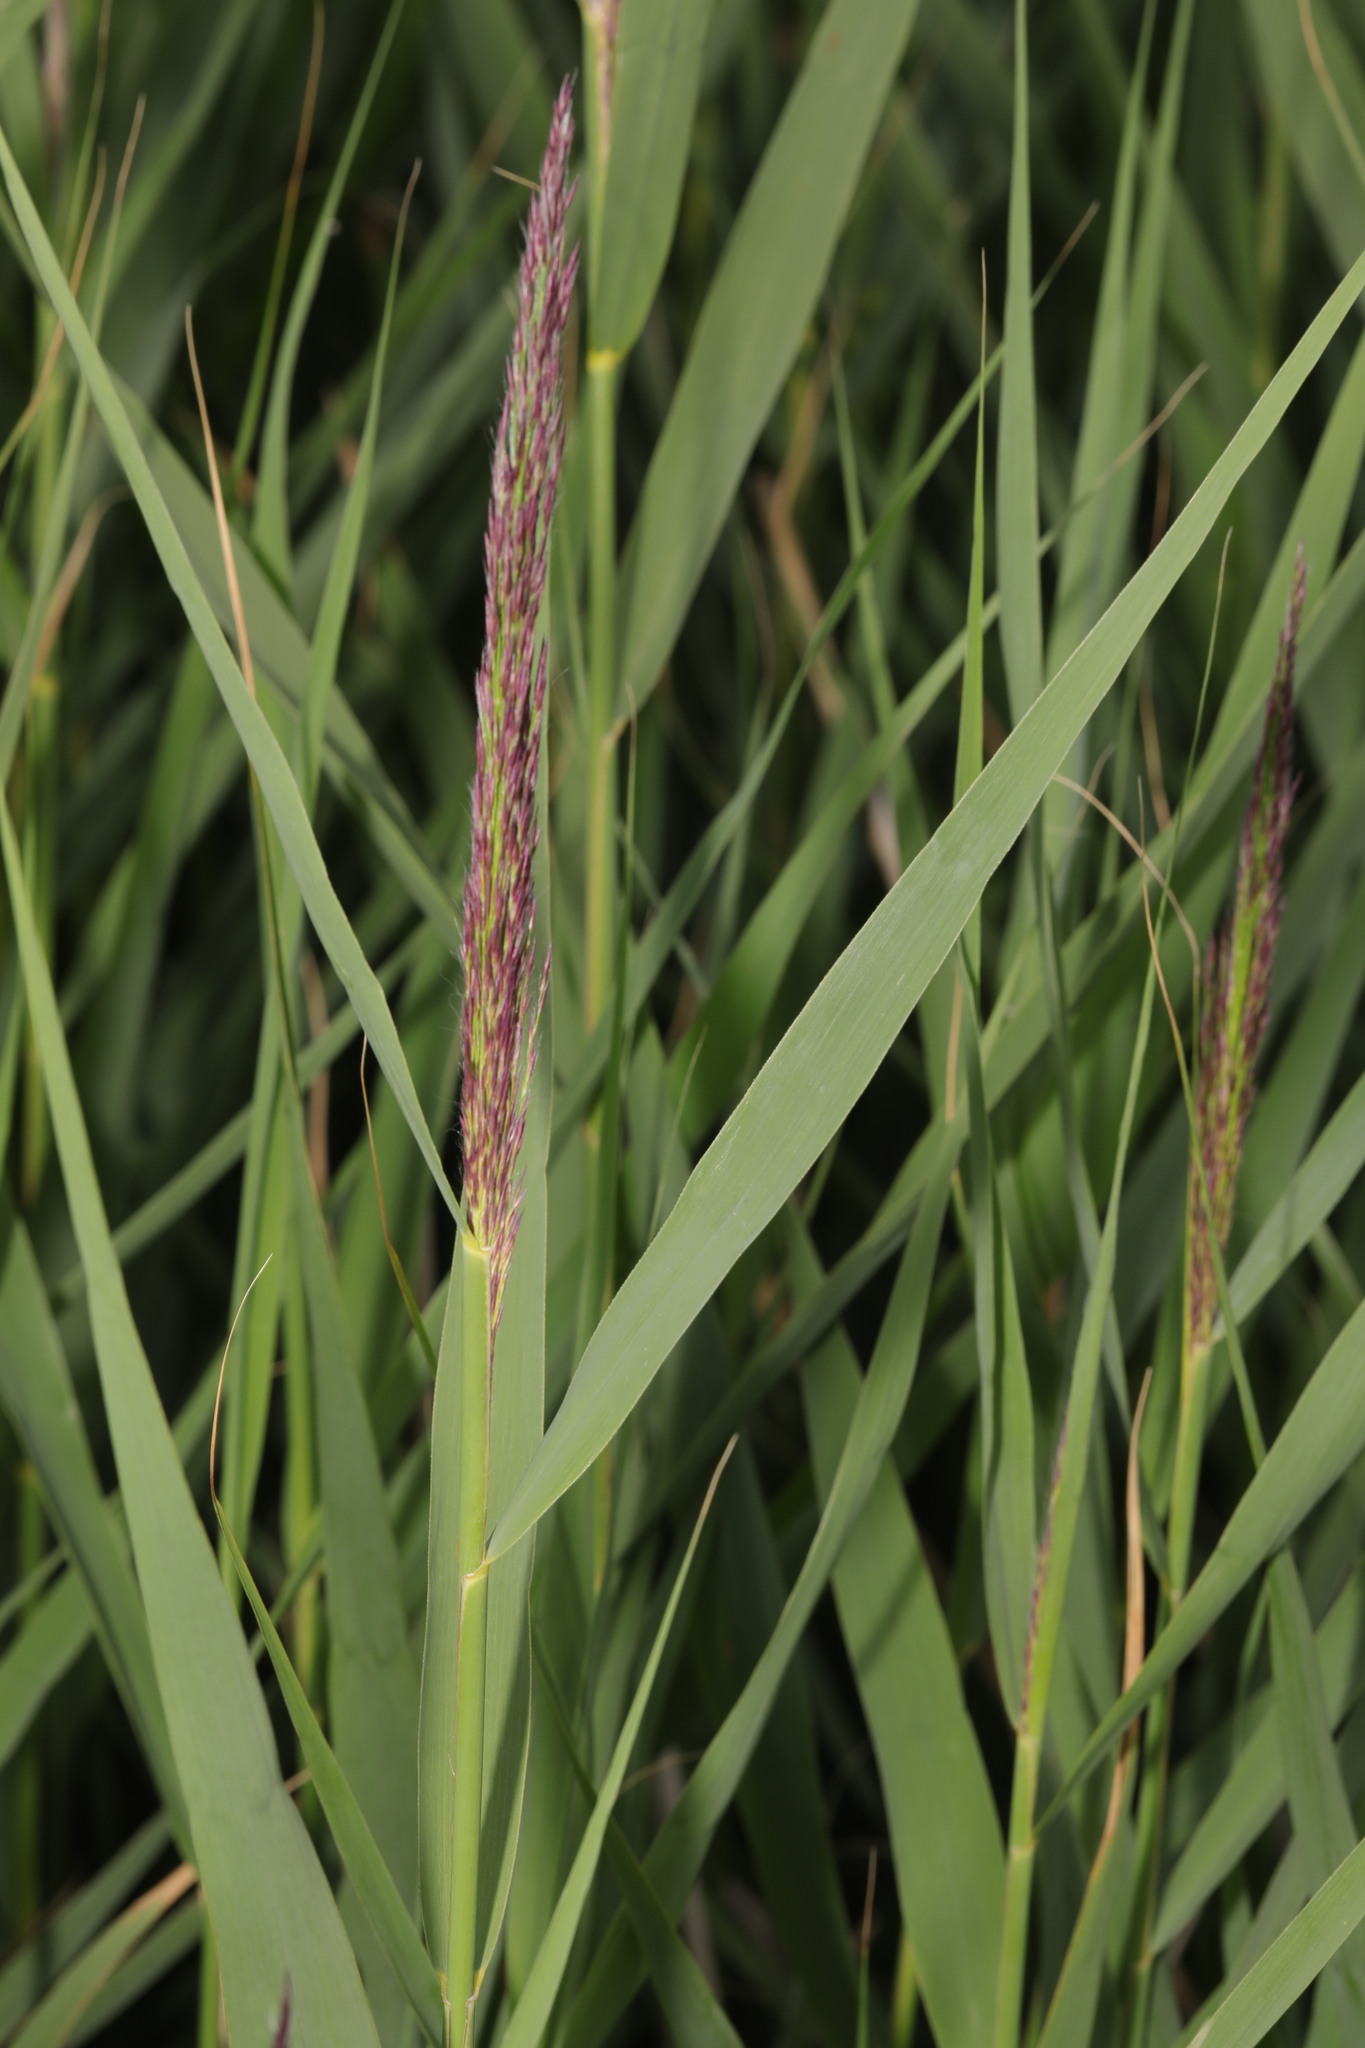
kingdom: Plantae
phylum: Tracheophyta
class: Liliopsida
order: Poales
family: Poaceae
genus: Phragmites
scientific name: Phragmites australis
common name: Common reed
